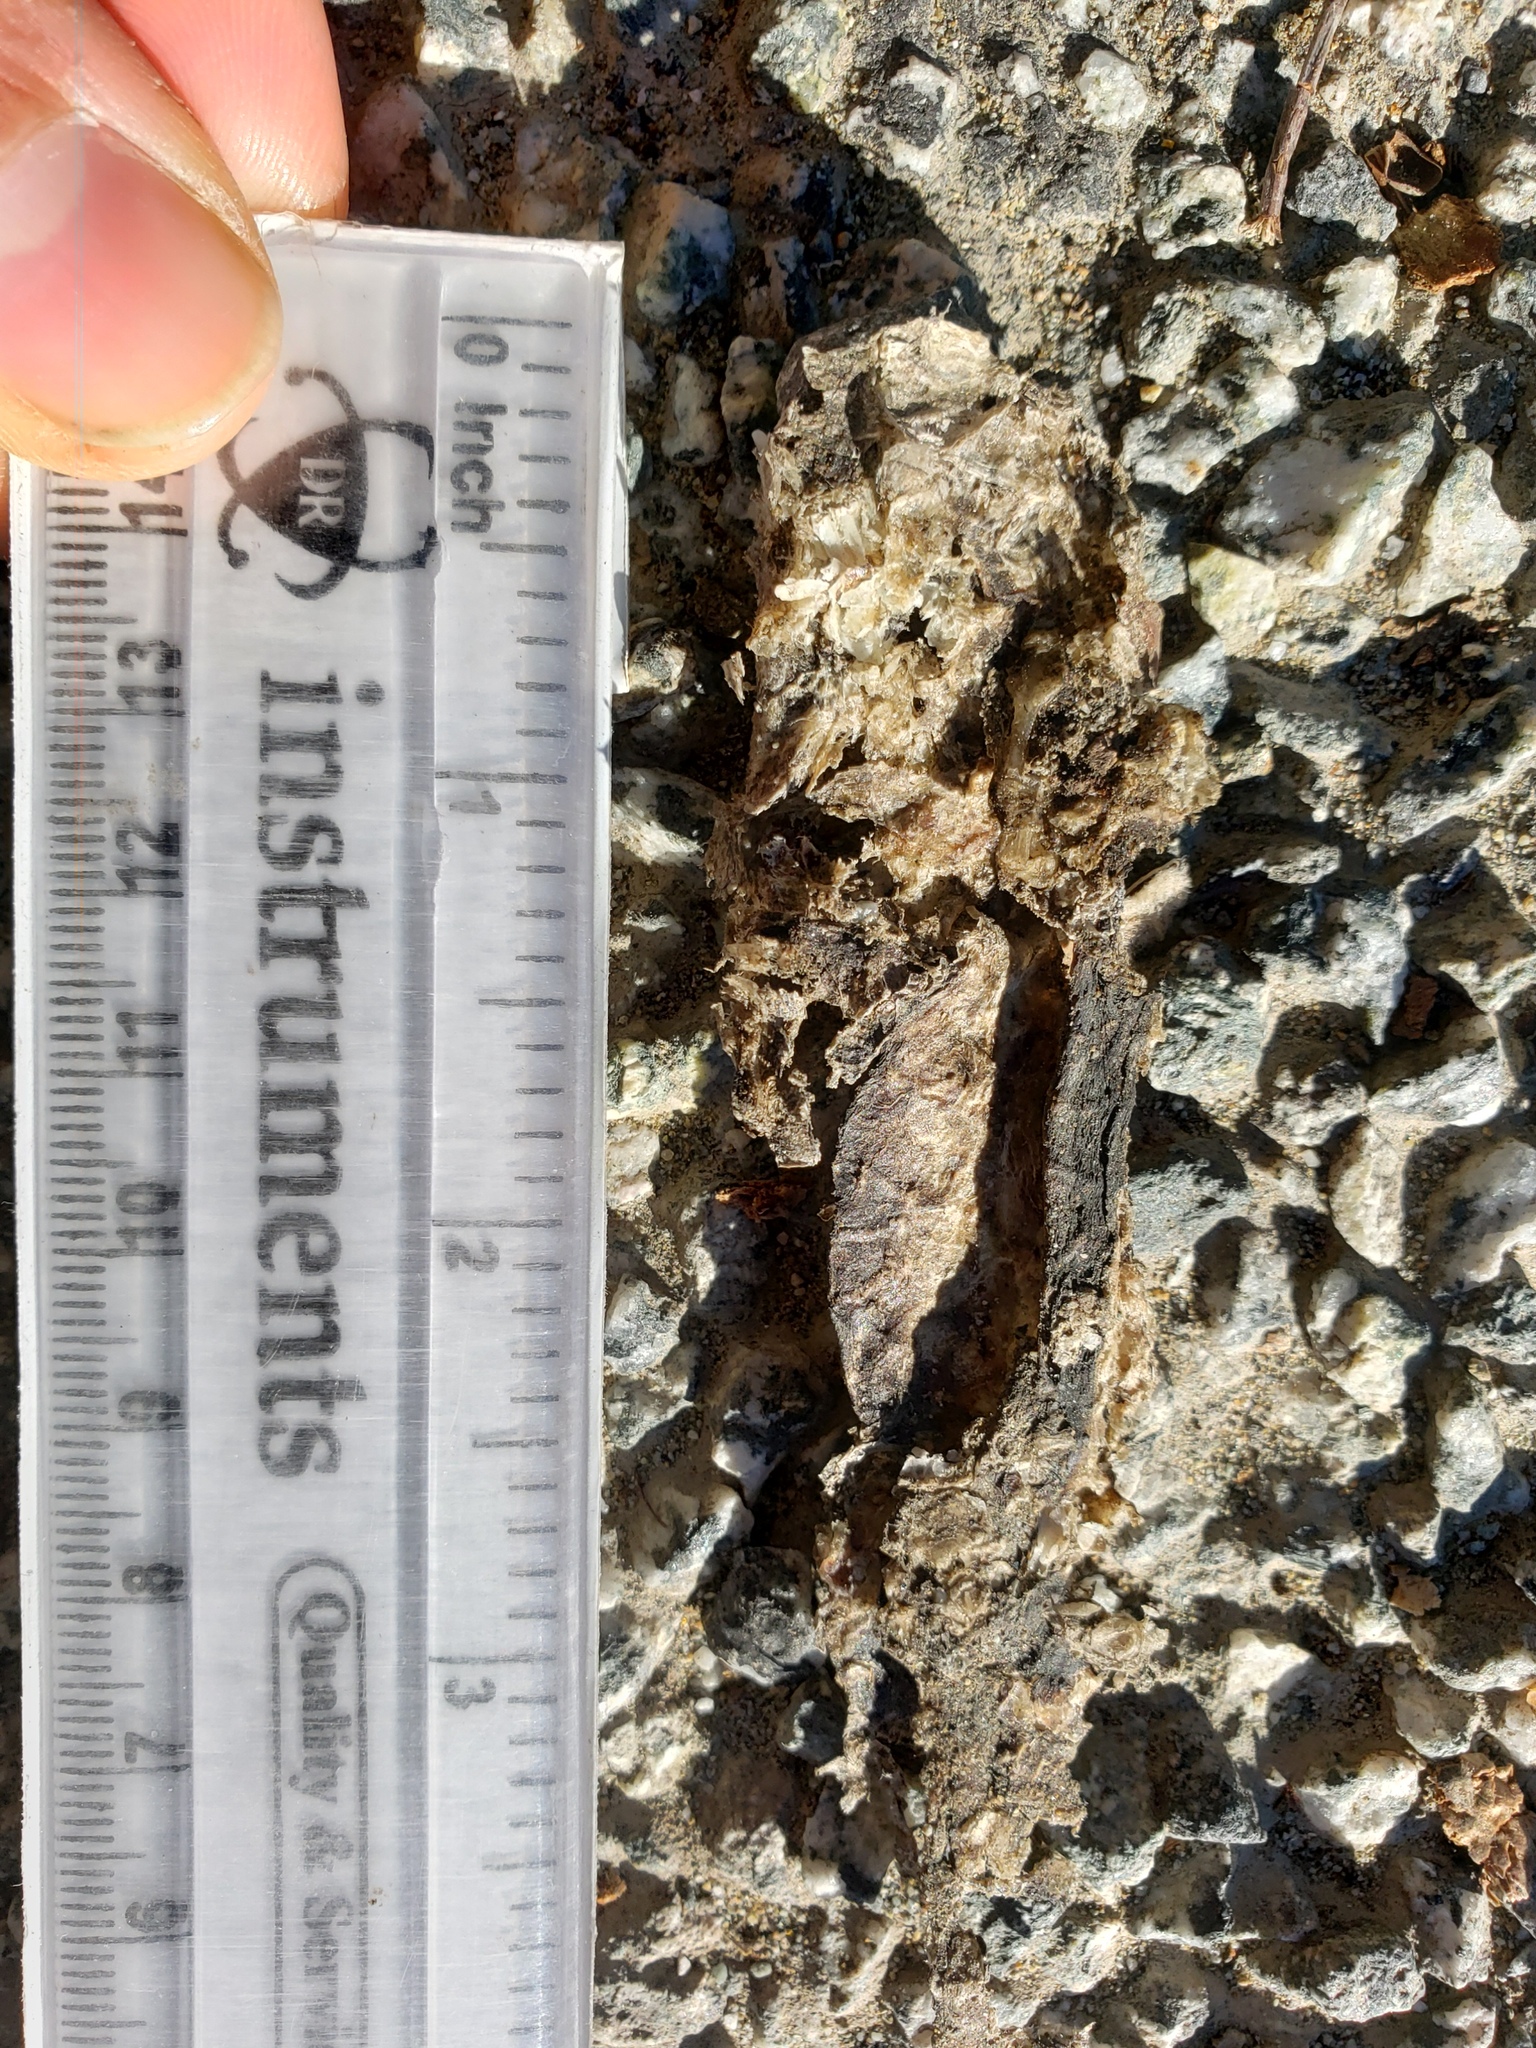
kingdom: Animalia
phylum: Chordata
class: Amphibia
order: Caudata
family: Salamandridae
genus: Taricha
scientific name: Taricha
